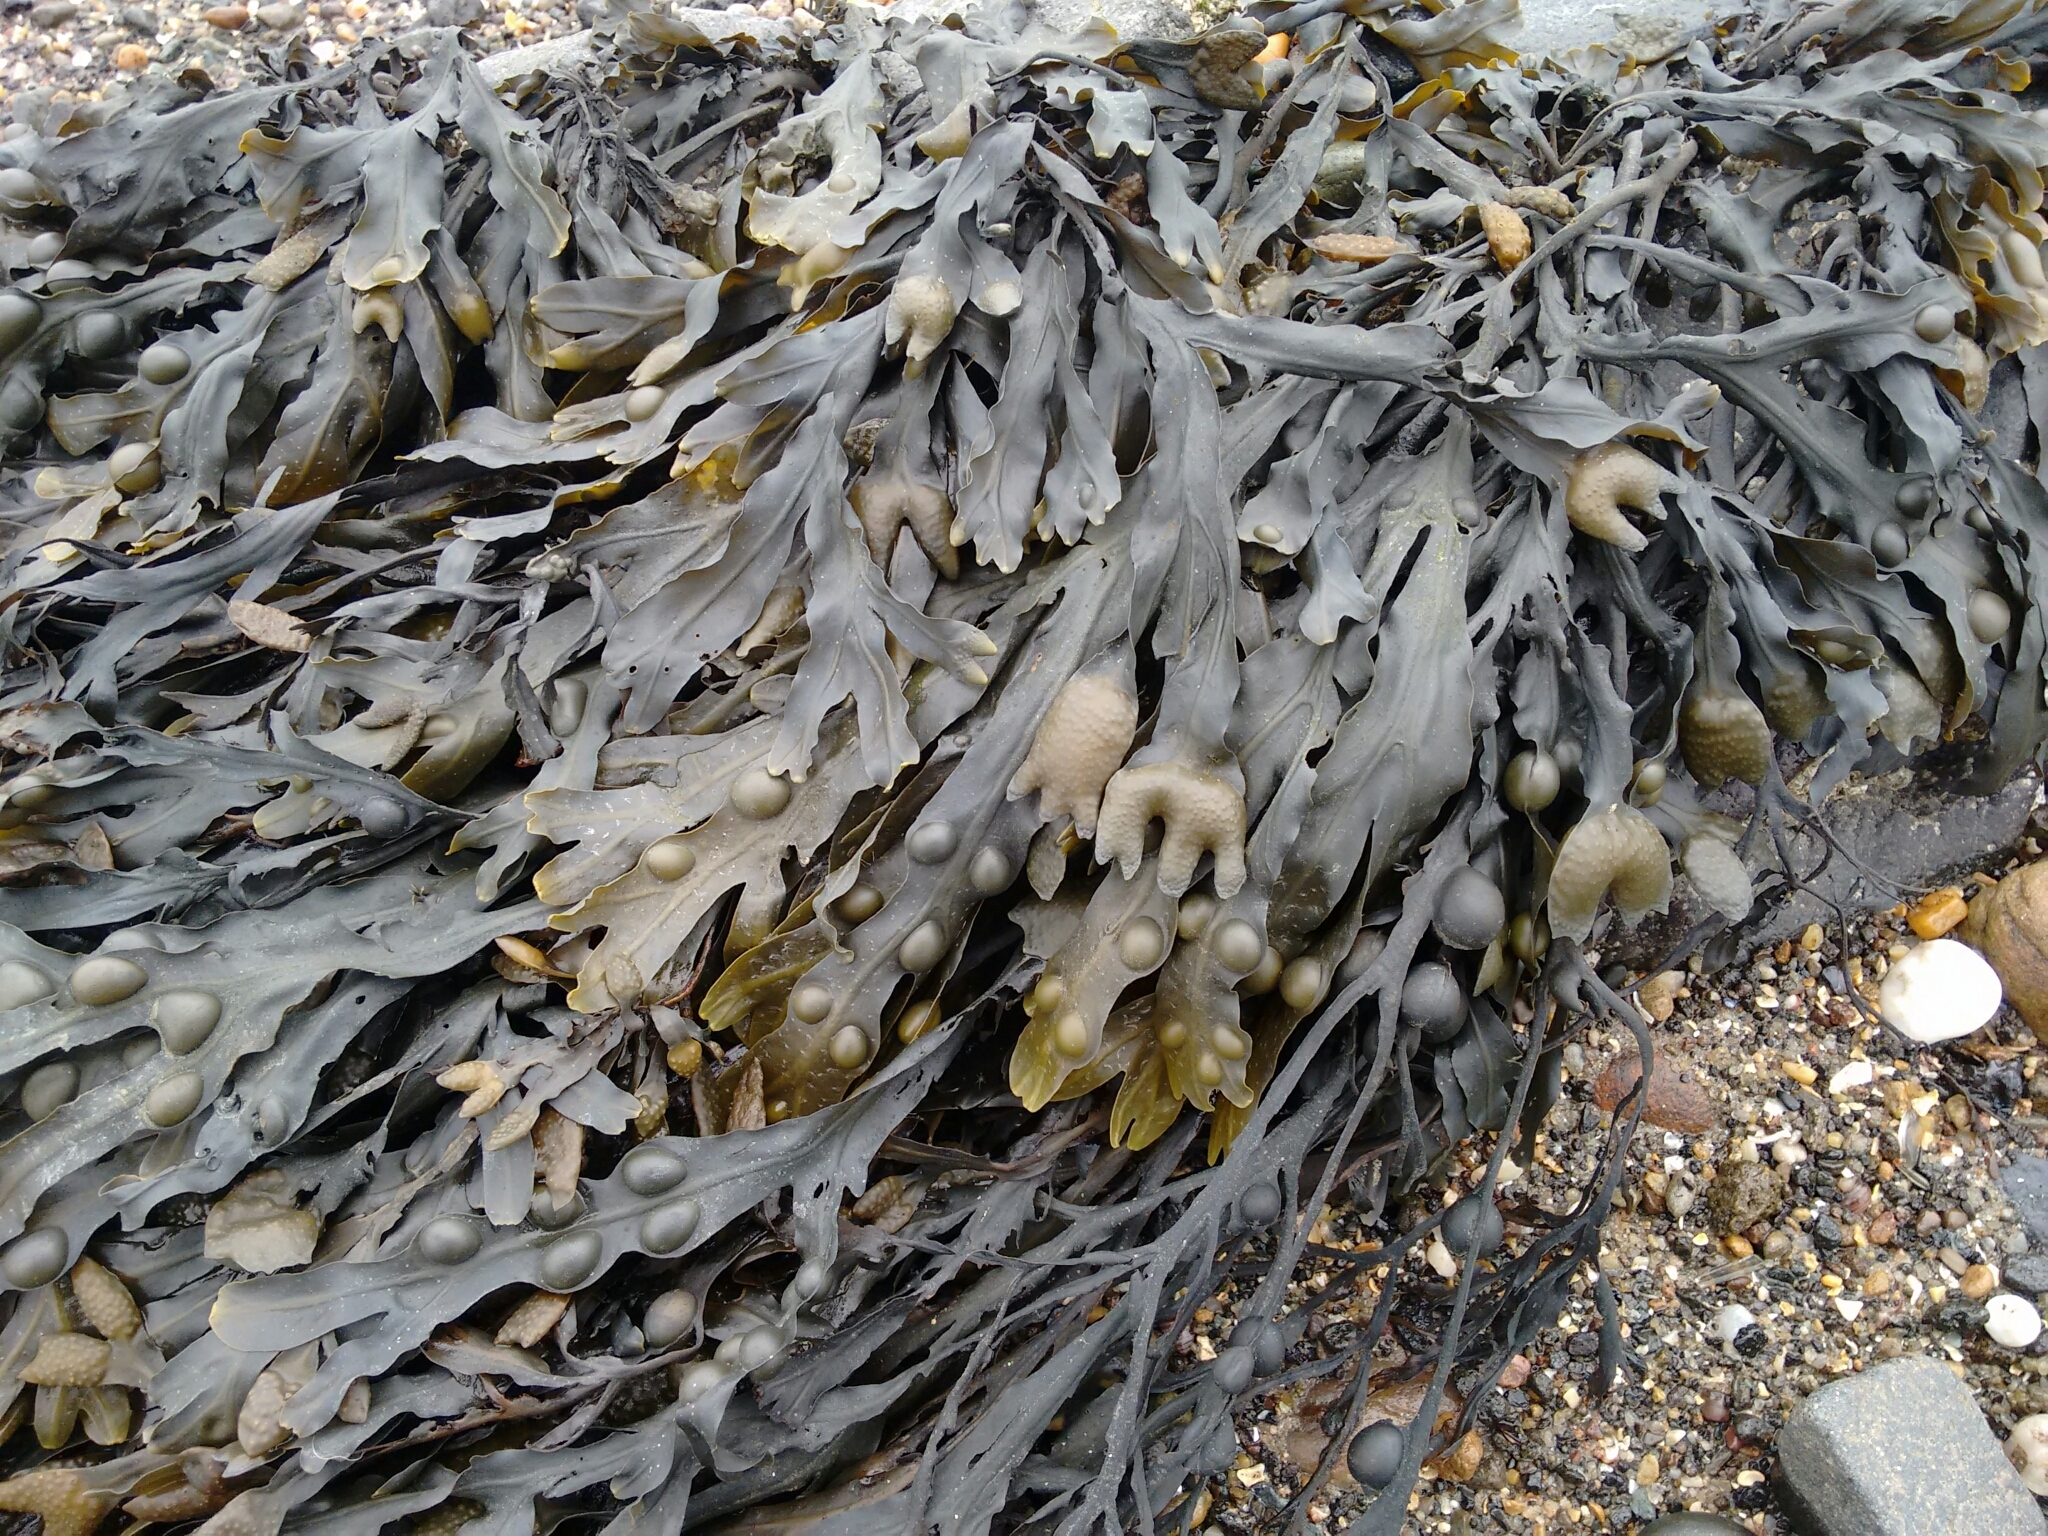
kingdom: Chromista
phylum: Ochrophyta
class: Phaeophyceae
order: Fucales
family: Fucaceae
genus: Fucus
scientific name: Fucus vesiculosus
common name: Bladder wrack
